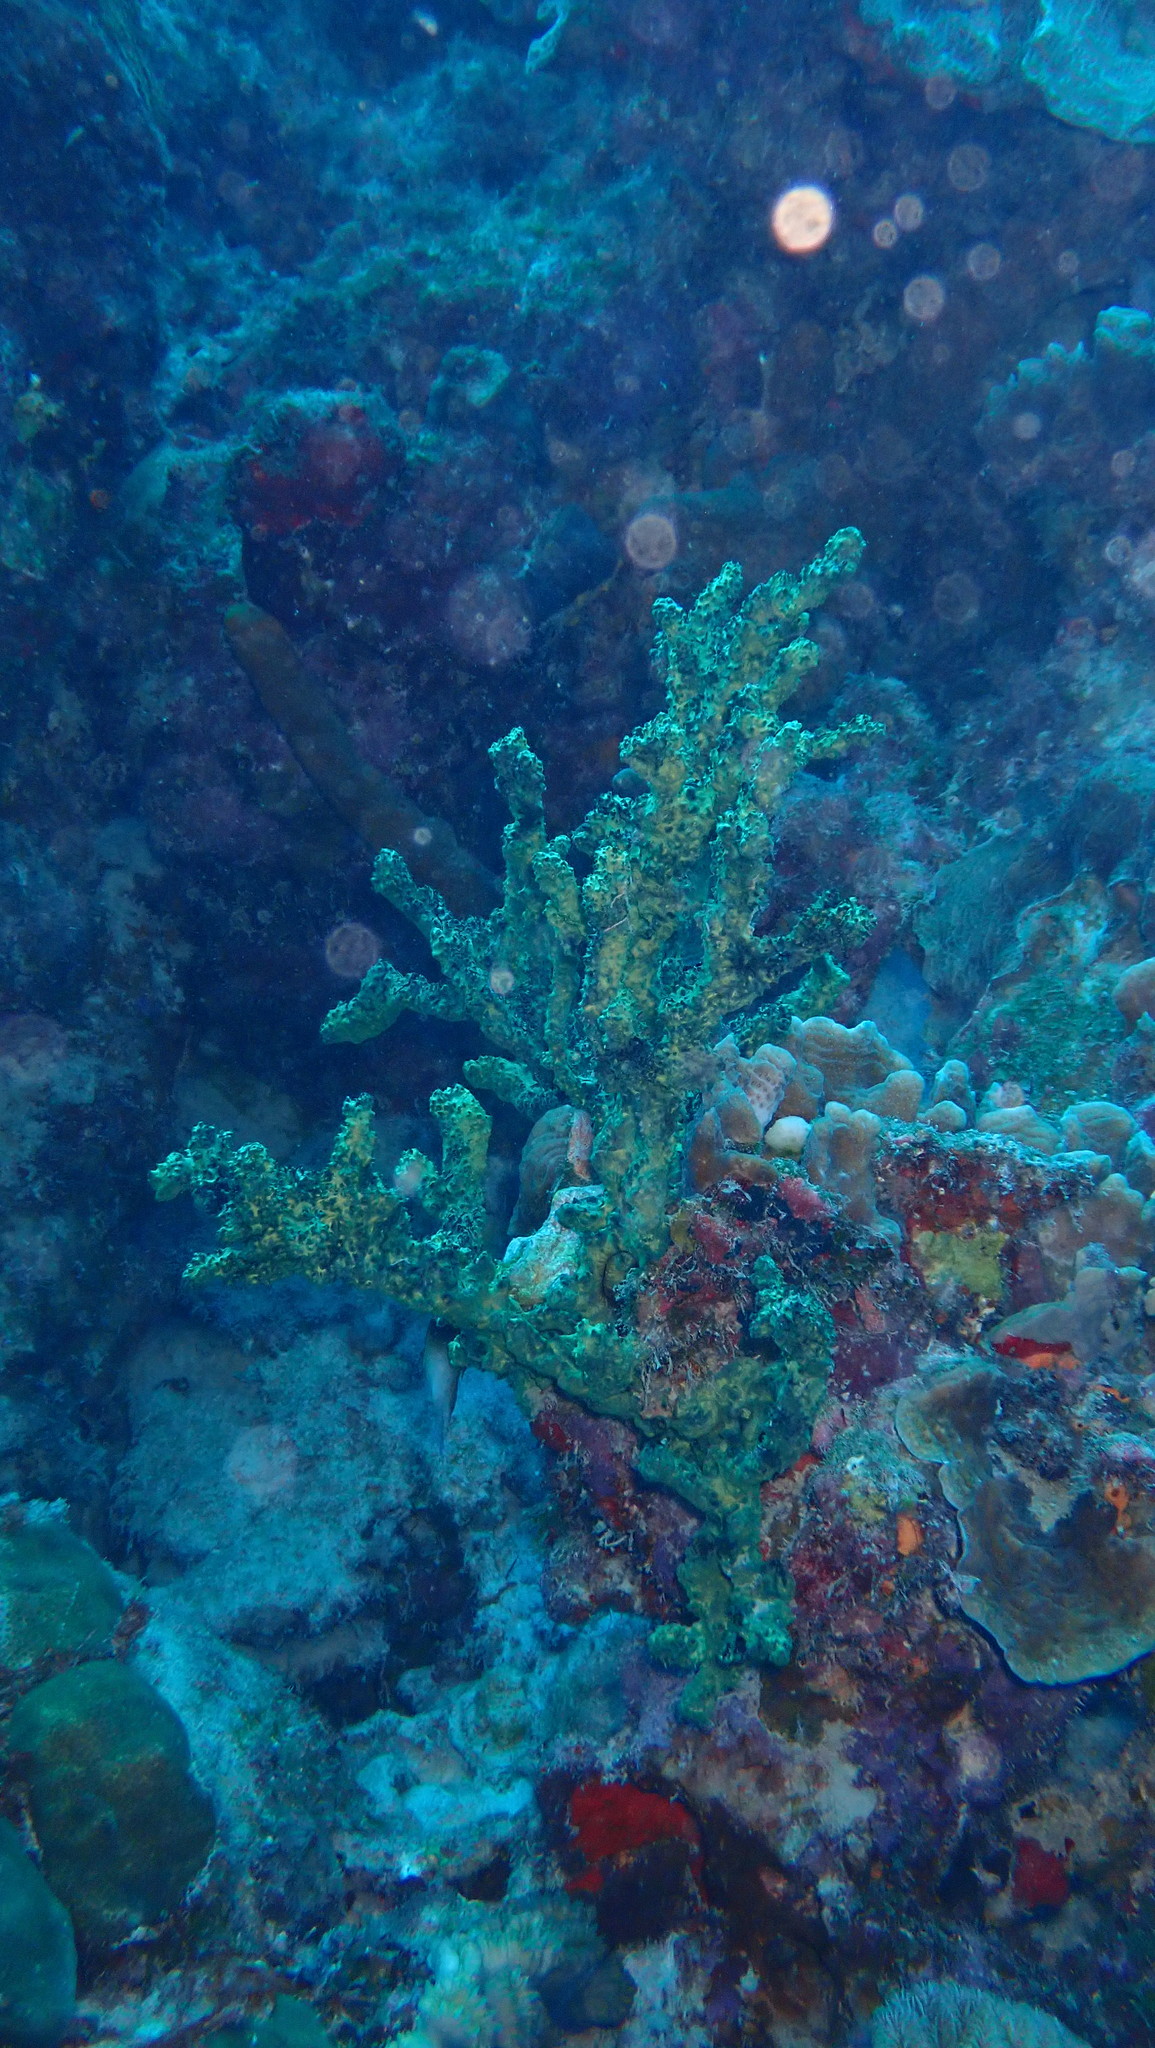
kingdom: Animalia
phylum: Porifera
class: Demospongiae
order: Poecilosclerida
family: Iotrochotidae
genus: Iotrochota
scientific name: Iotrochota birotulata
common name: Purple bleeding sponge
